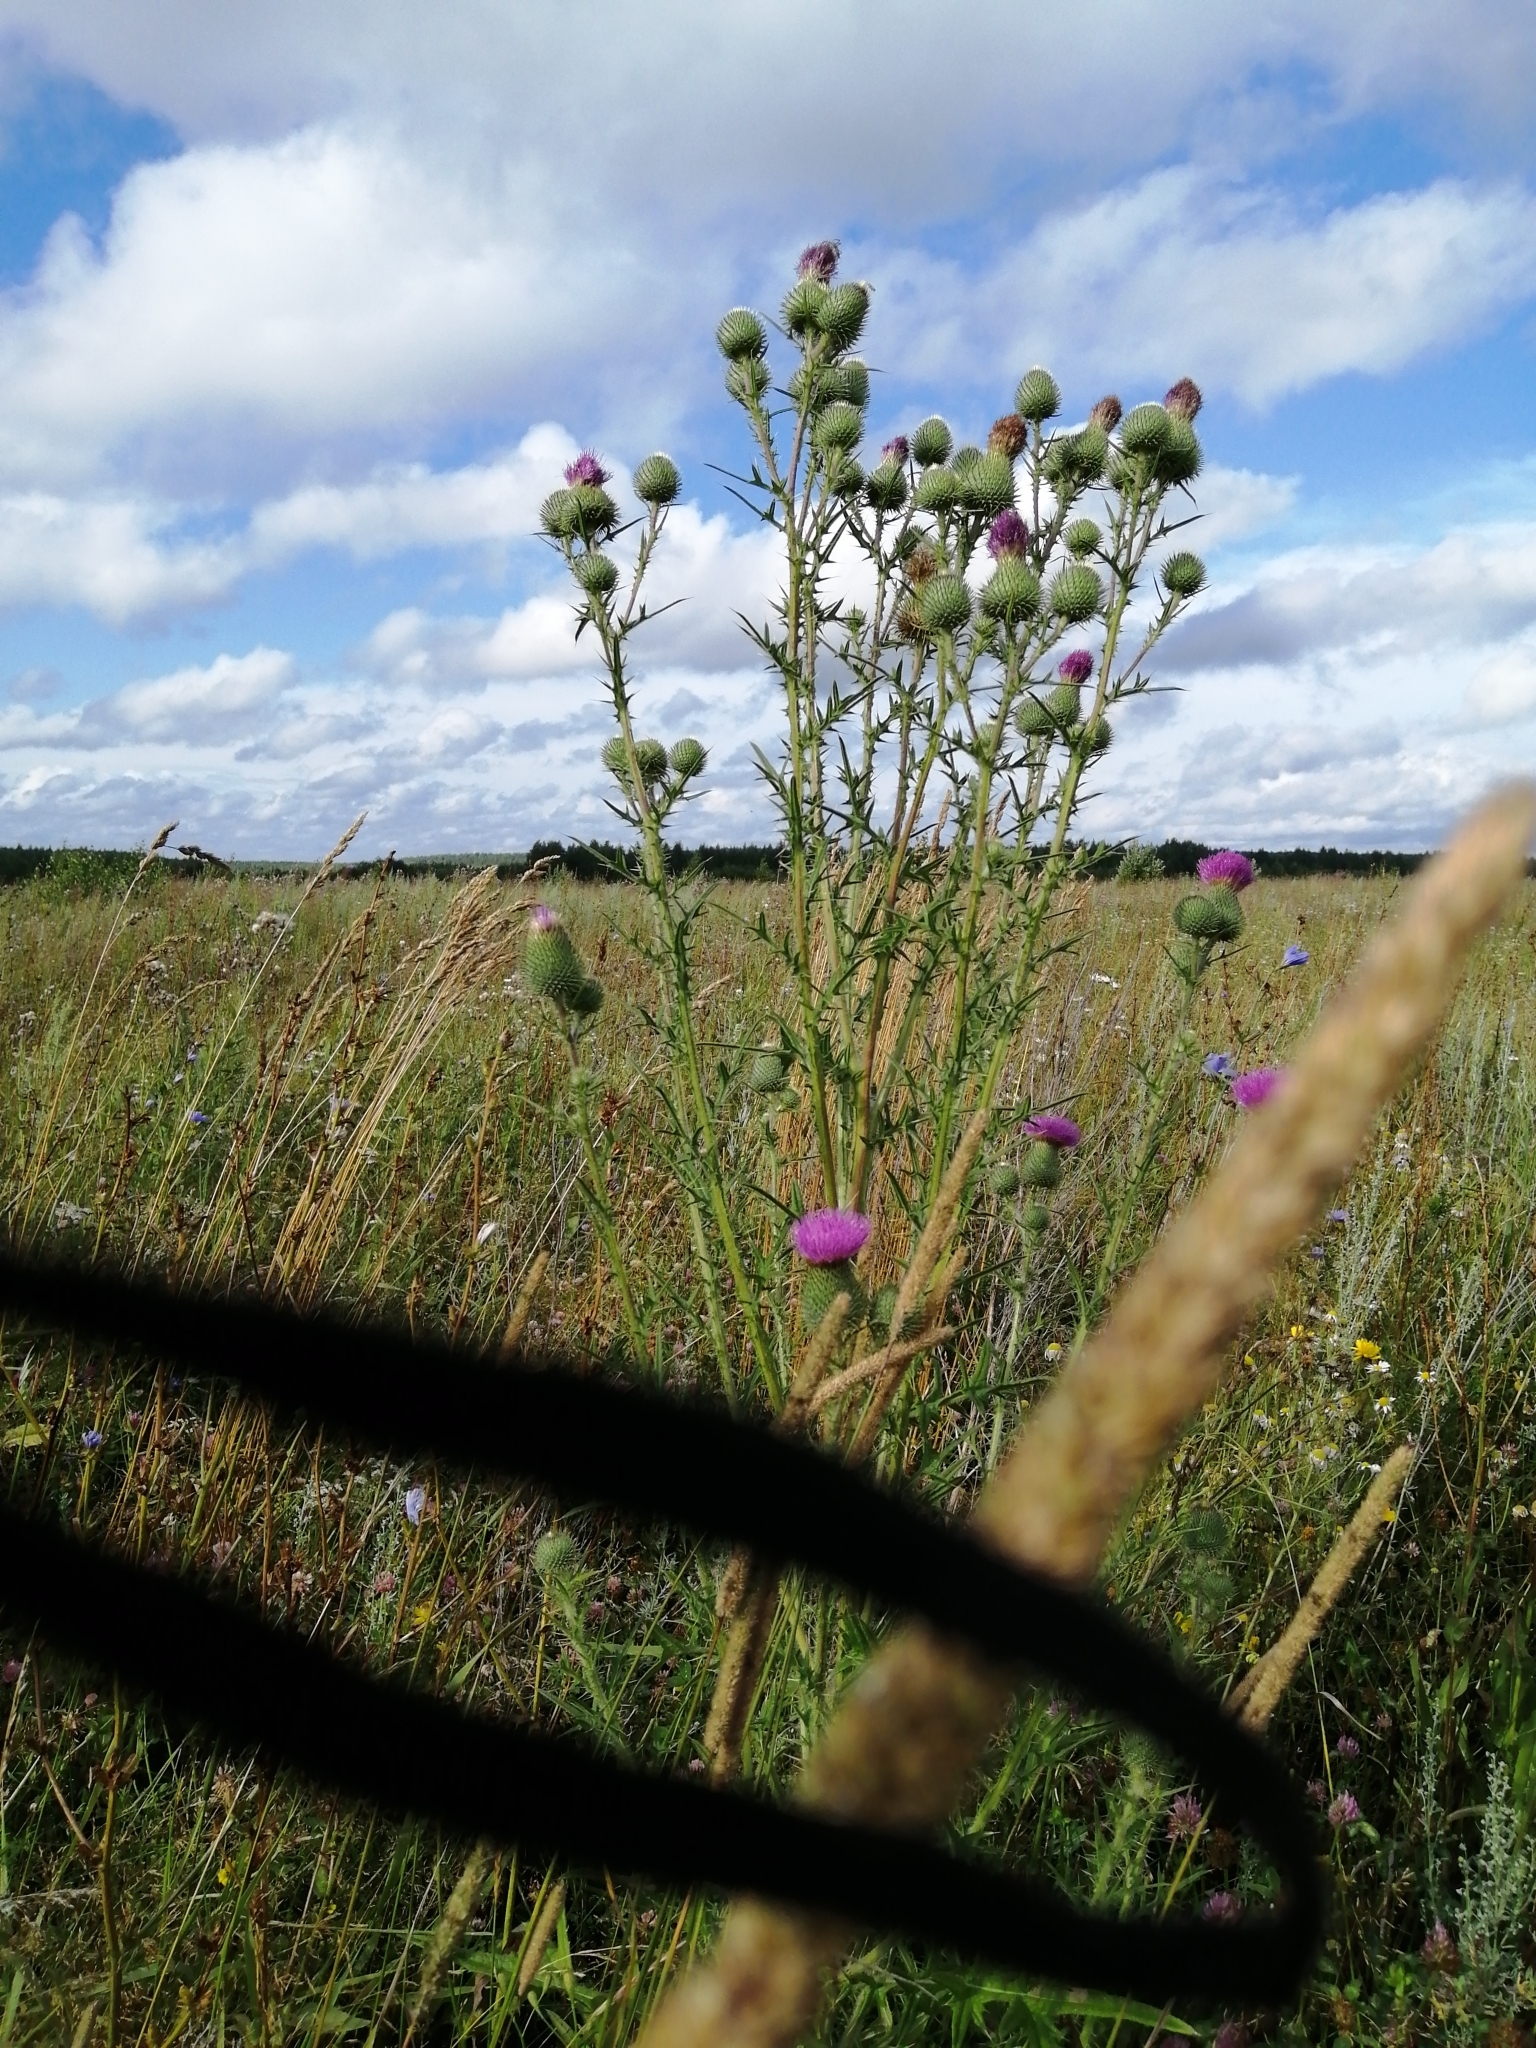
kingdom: Plantae
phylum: Tracheophyta
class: Magnoliopsida
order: Asterales
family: Asteraceae
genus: Cirsium
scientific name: Cirsium vulgare
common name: Bull thistle
